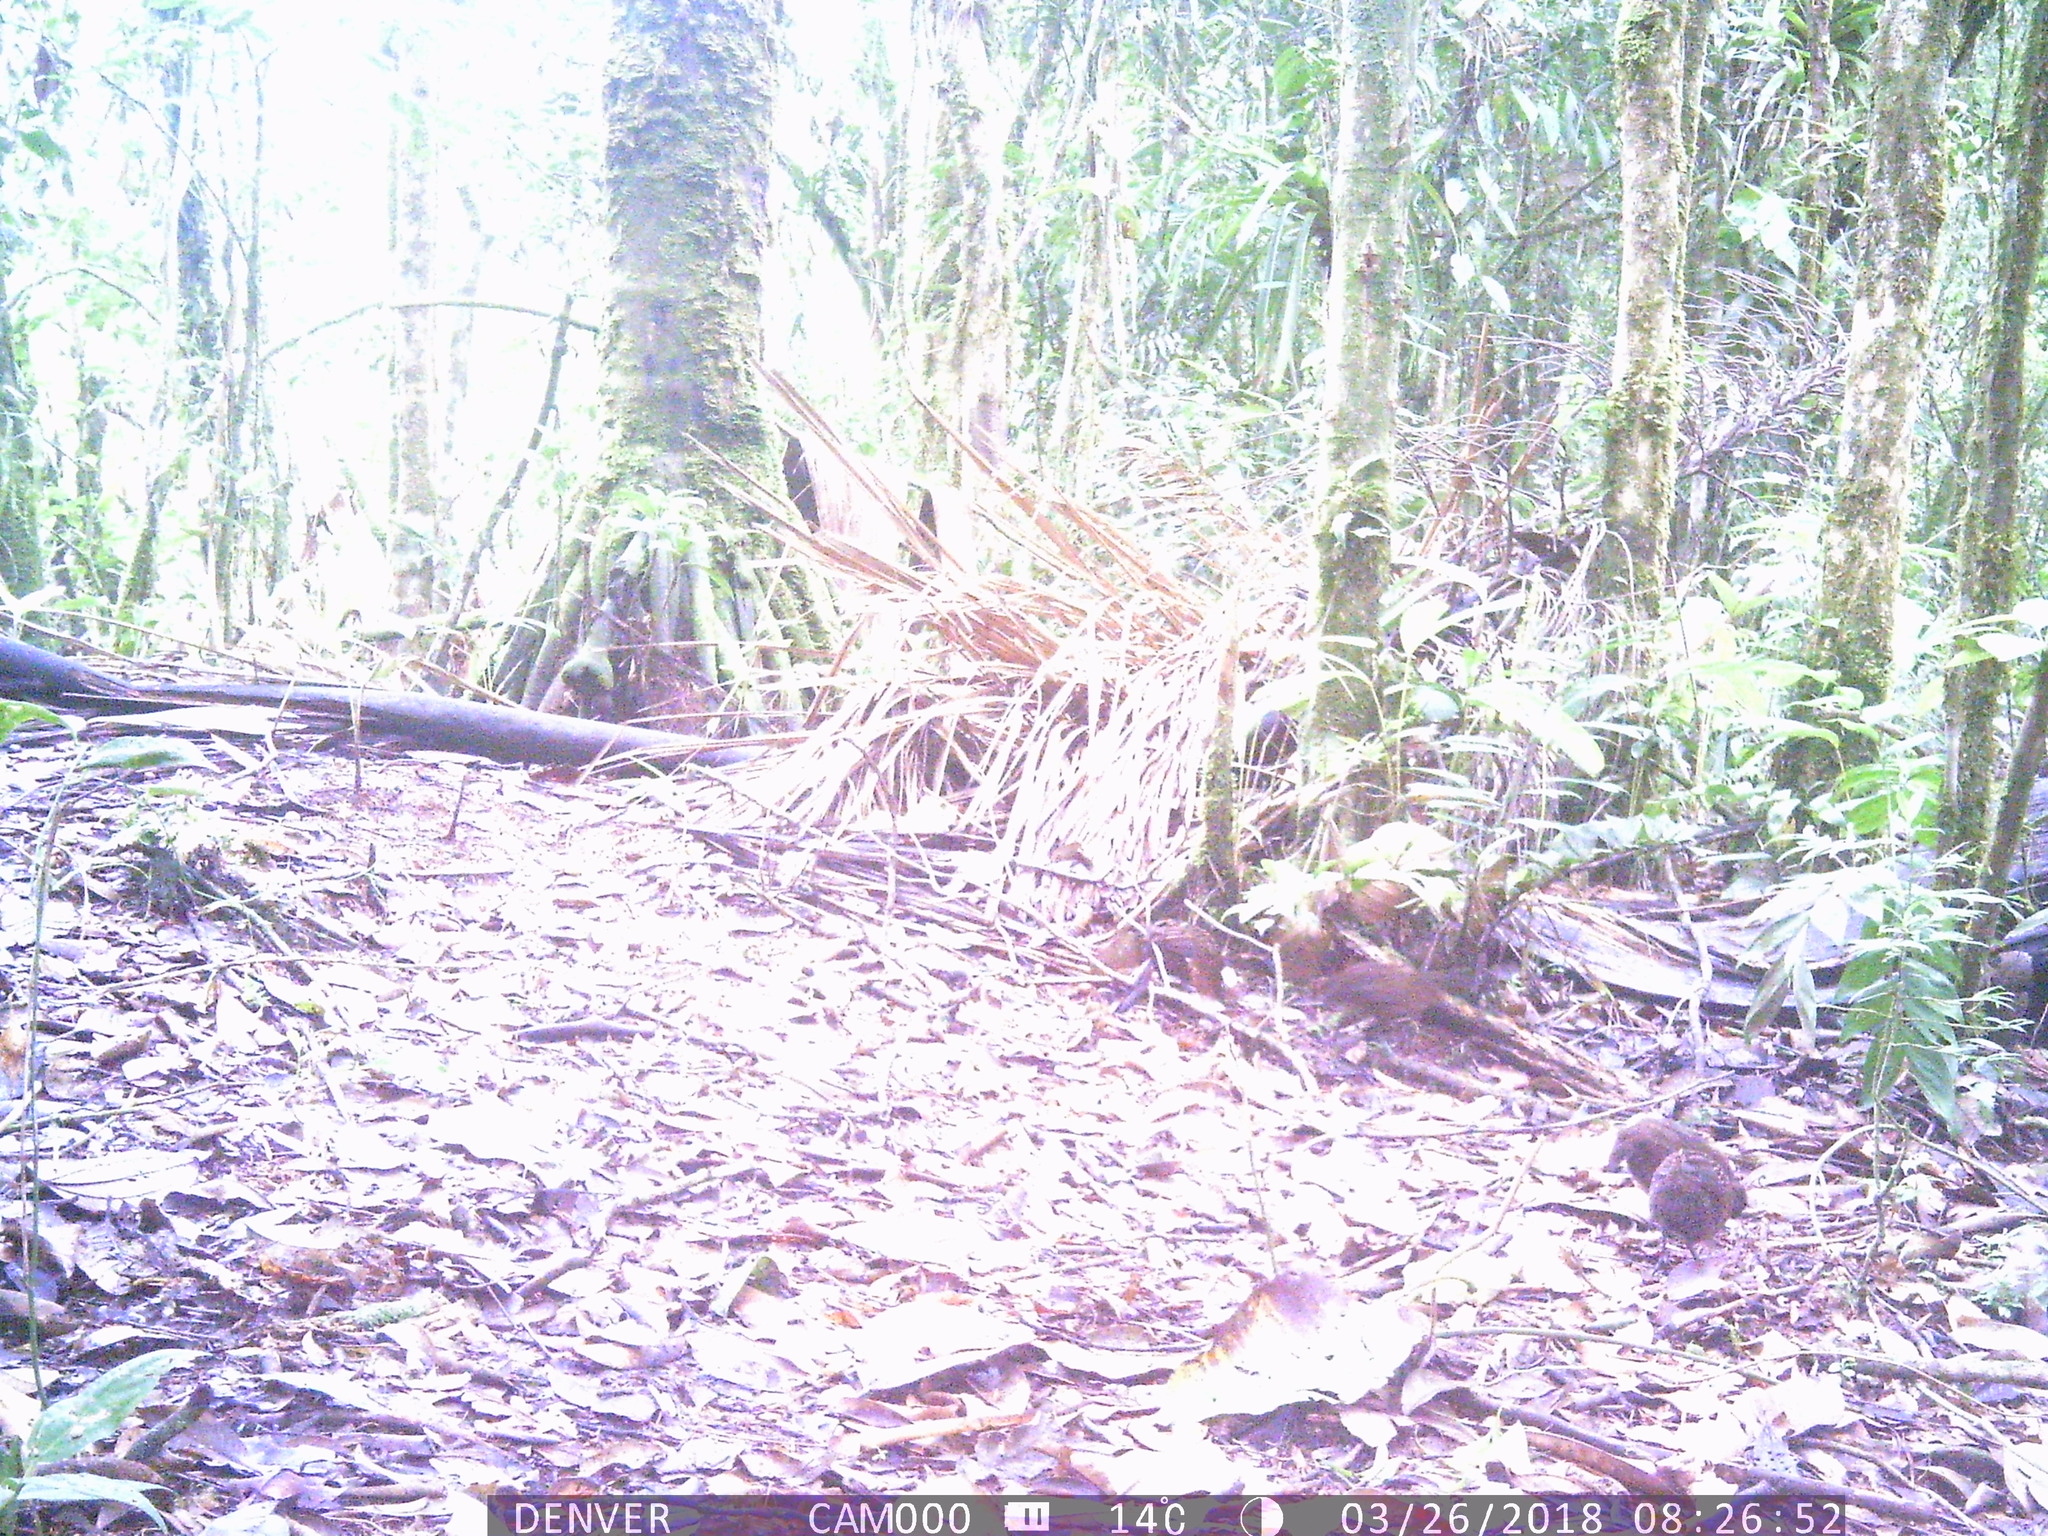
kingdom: Animalia
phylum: Chordata
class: Aves
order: Galliformes
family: Odontophoridae
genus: Odontophorus
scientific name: Odontophorus gujanensis
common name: Marbled wood-quail
